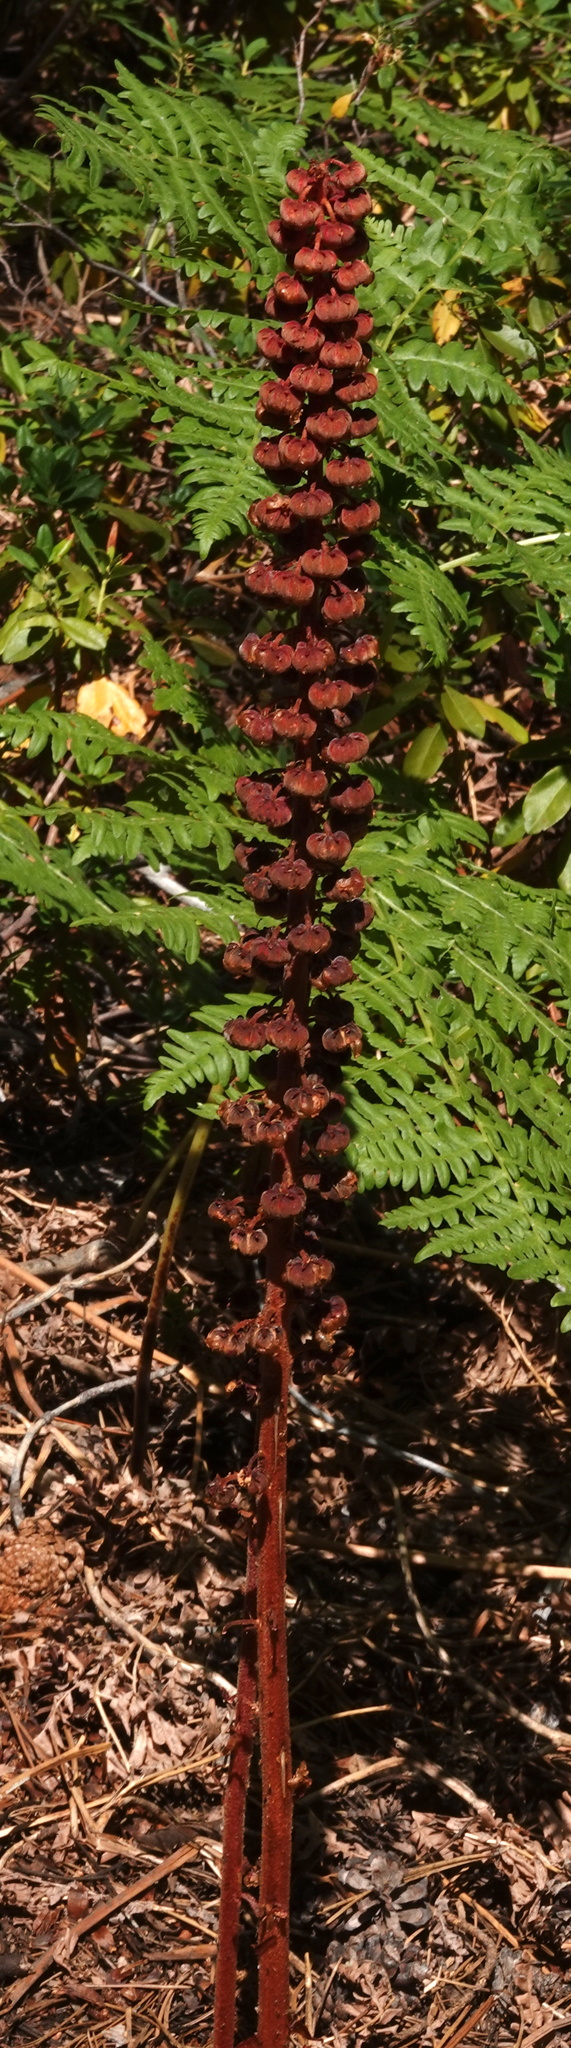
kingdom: Plantae
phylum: Tracheophyta
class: Magnoliopsida
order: Ericales
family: Ericaceae
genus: Pterospora
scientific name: Pterospora andromedea
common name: Giant bird's-nest
